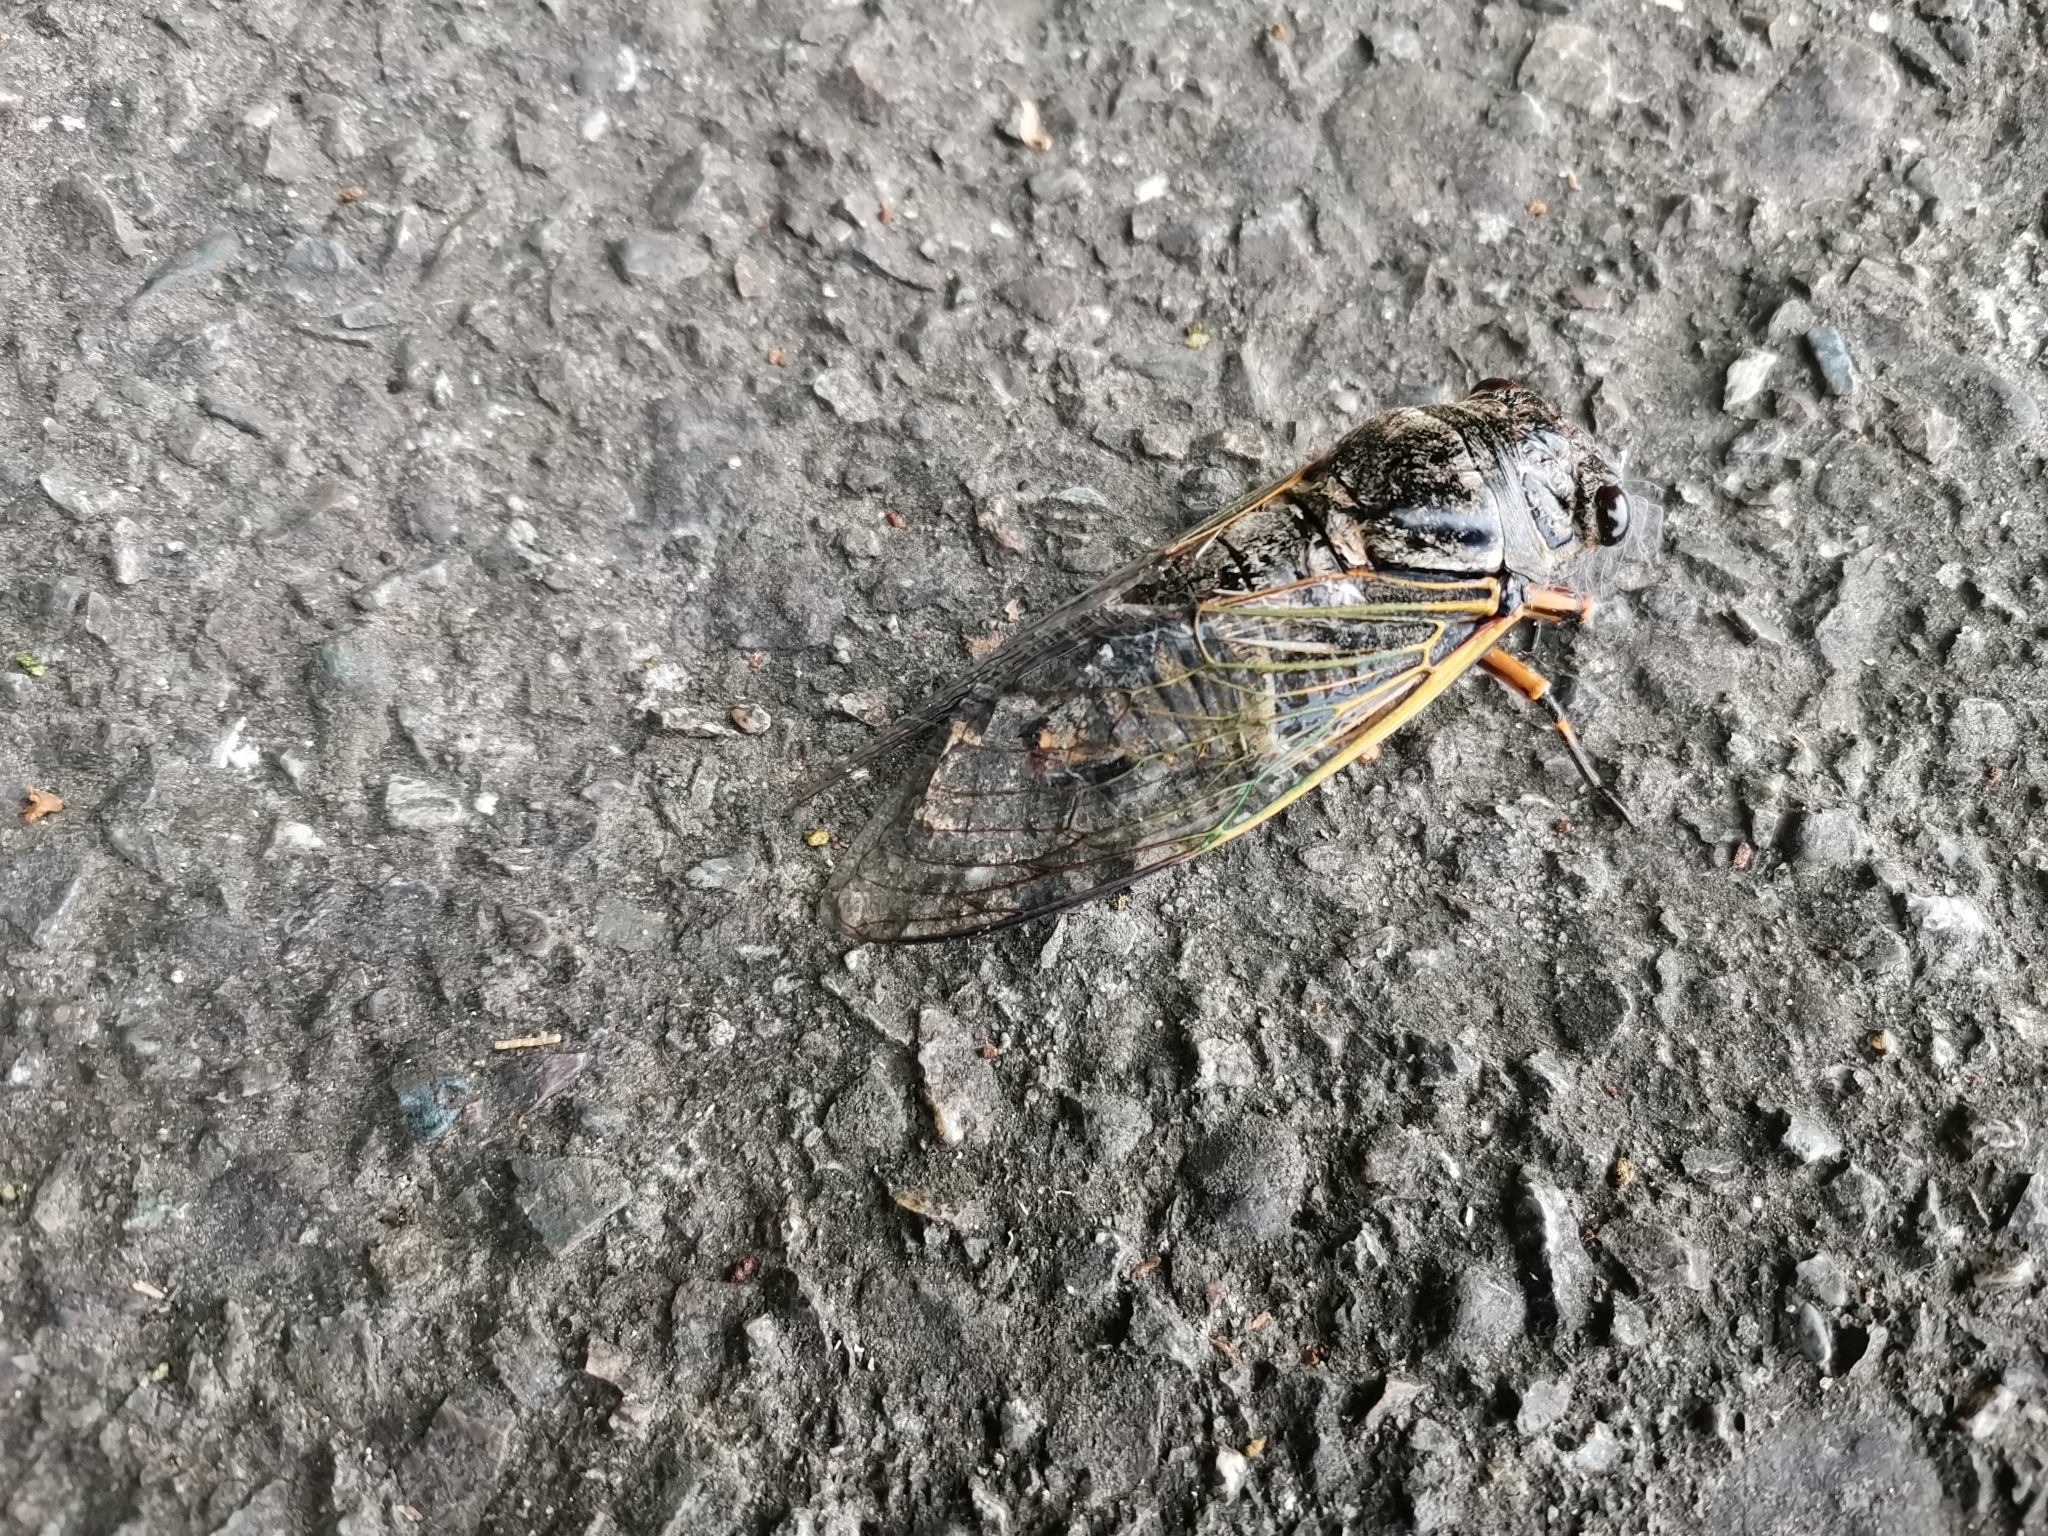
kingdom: Animalia
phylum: Arthropoda
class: Insecta
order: Hemiptera
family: Cicadidae
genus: Cryptotympana
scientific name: Cryptotympana facialis
